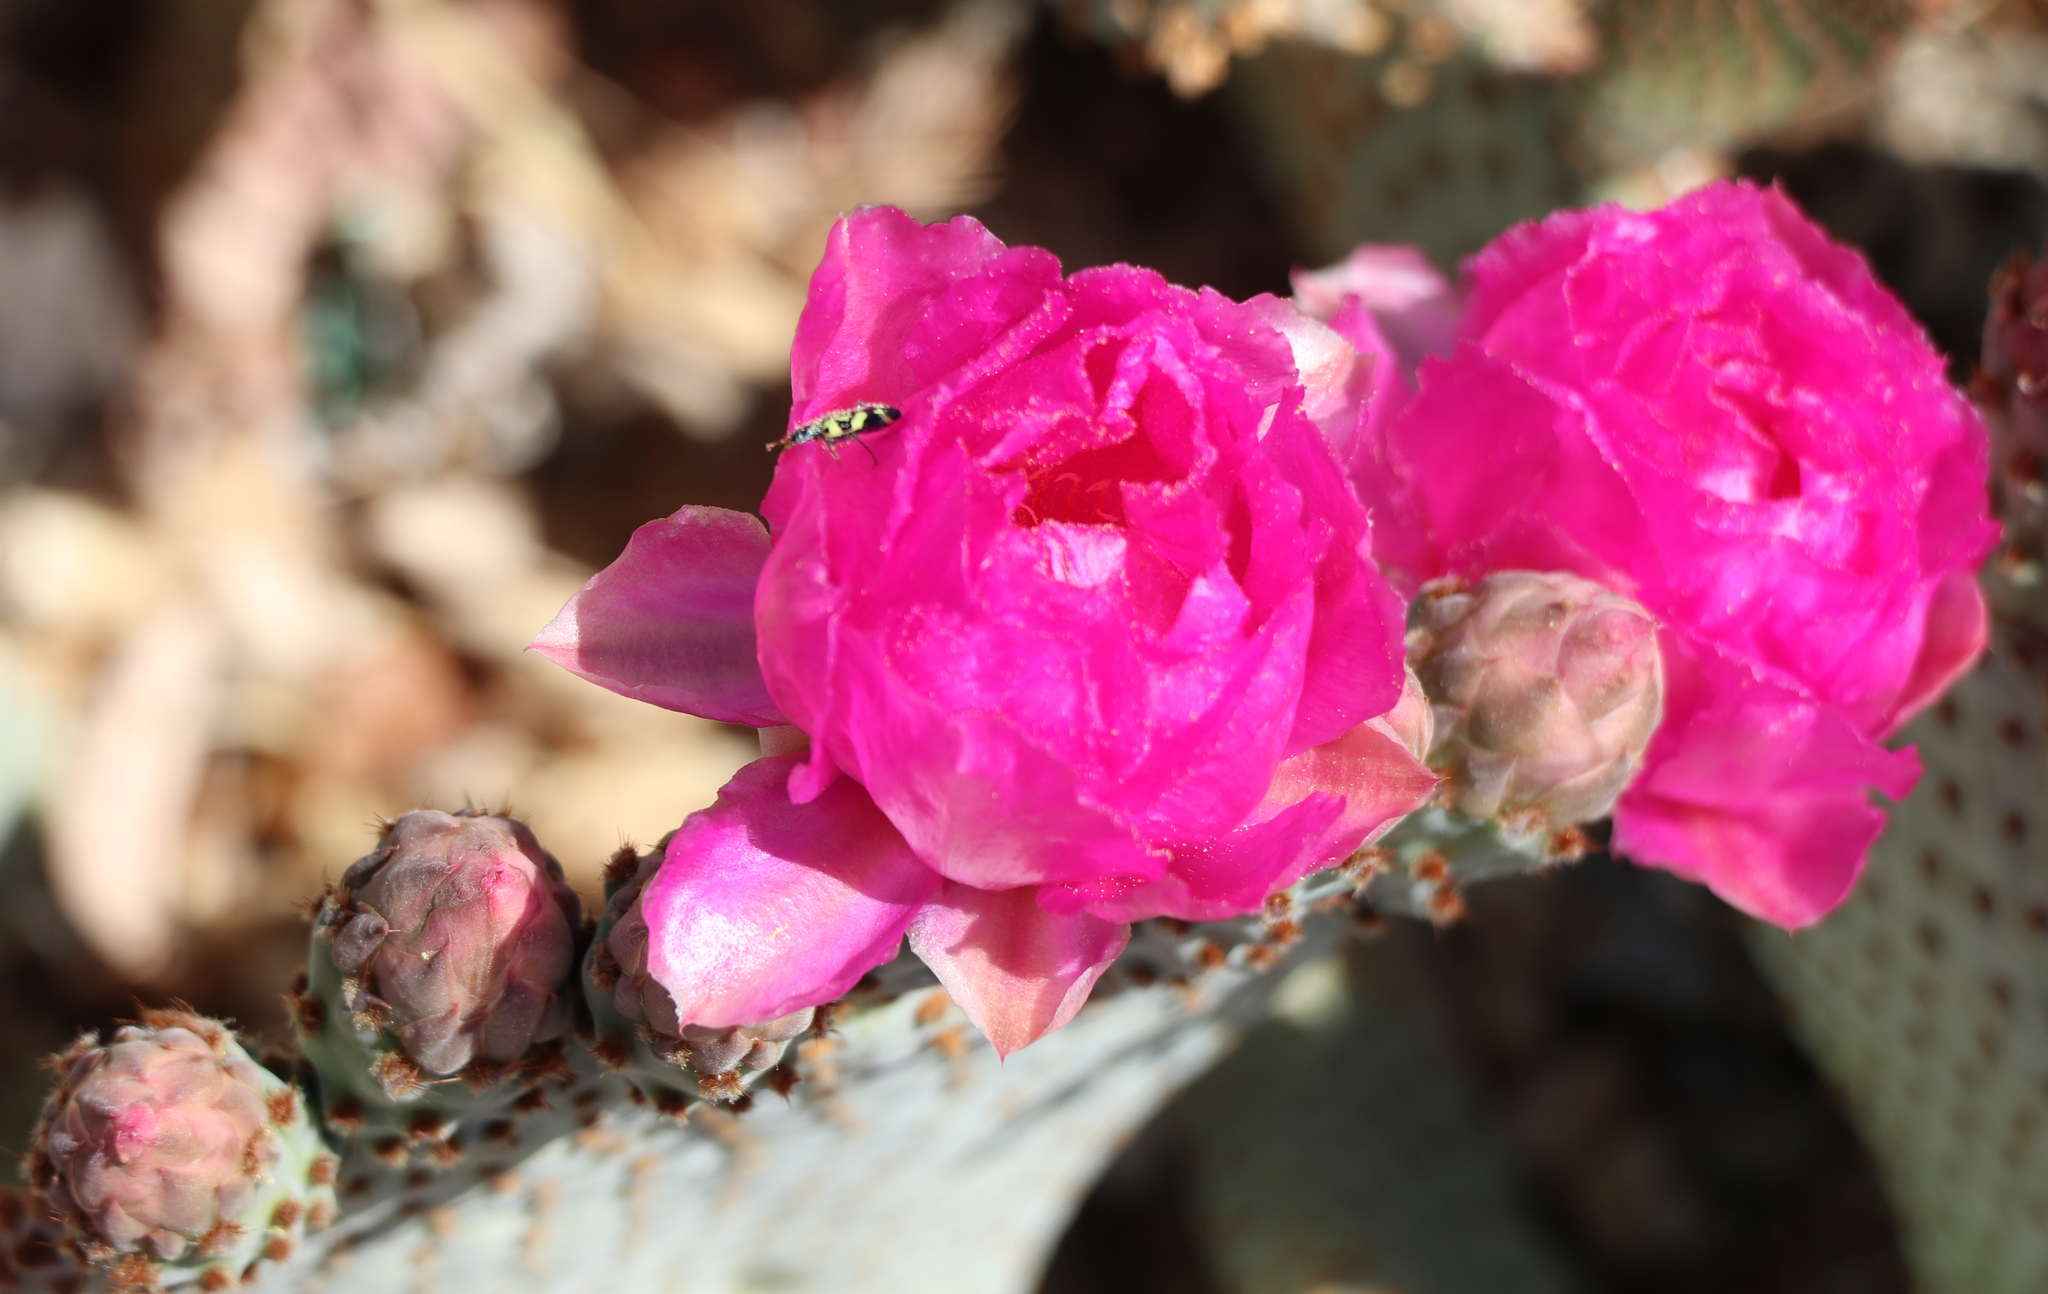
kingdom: Animalia
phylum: Arthropoda
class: Insecta
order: Coleoptera
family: Cleridae
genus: Trichodes
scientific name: Trichodes ornatus
